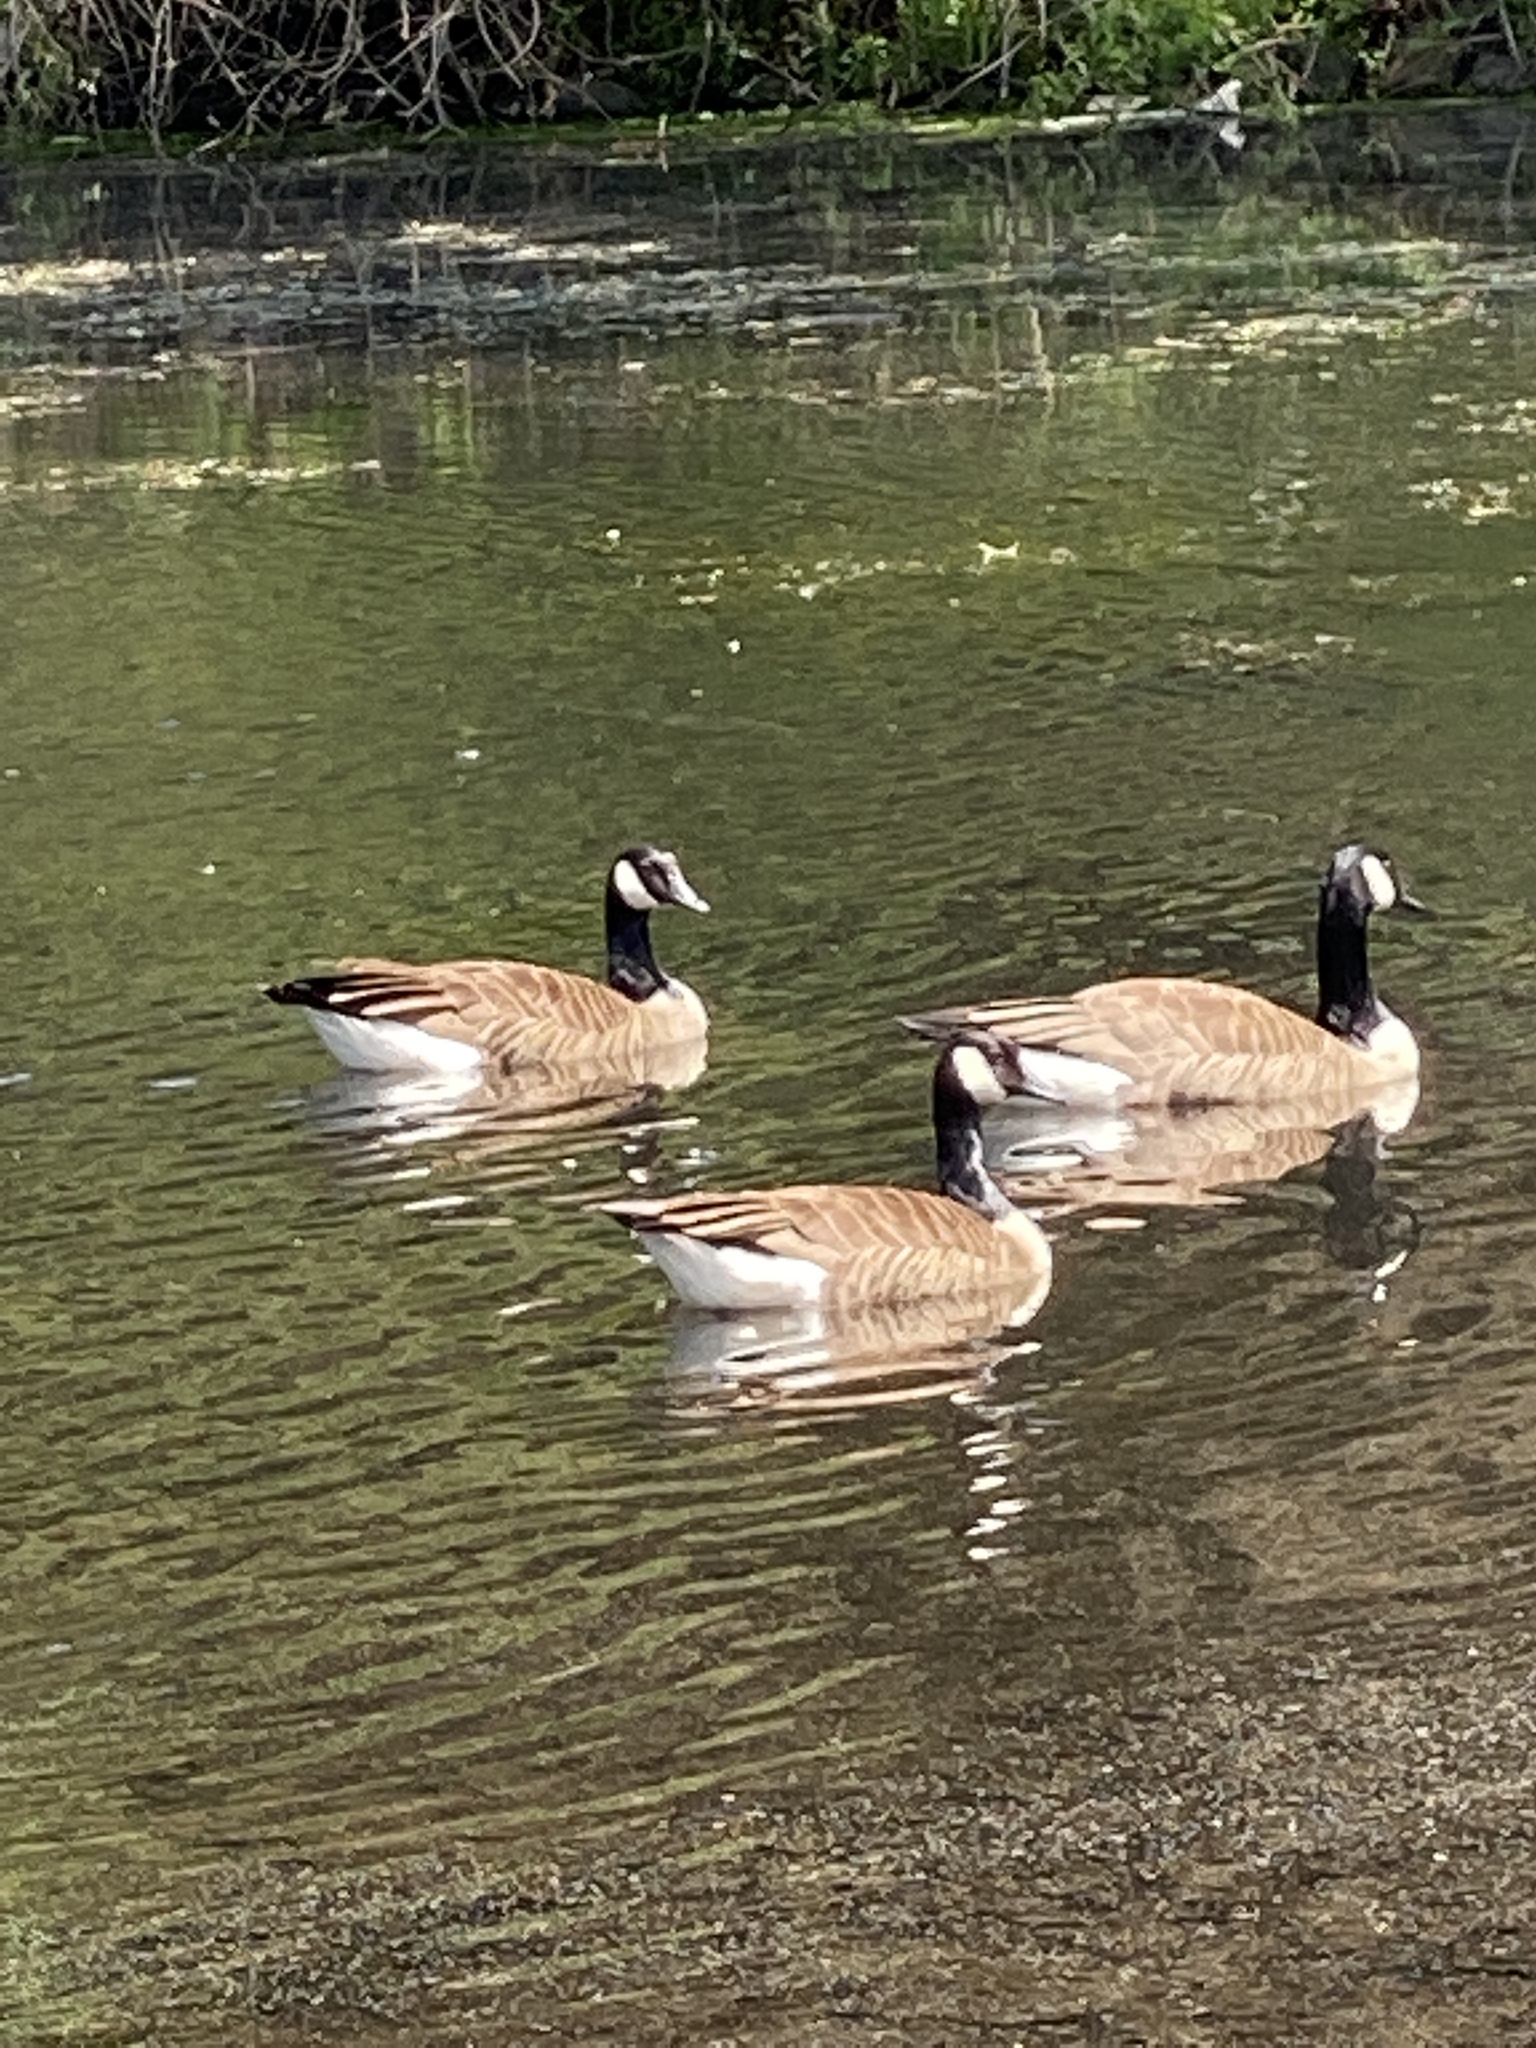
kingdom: Animalia
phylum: Chordata
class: Aves
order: Anseriformes
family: Anatidae
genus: Branta
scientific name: Branta canadensis
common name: Canada goose
